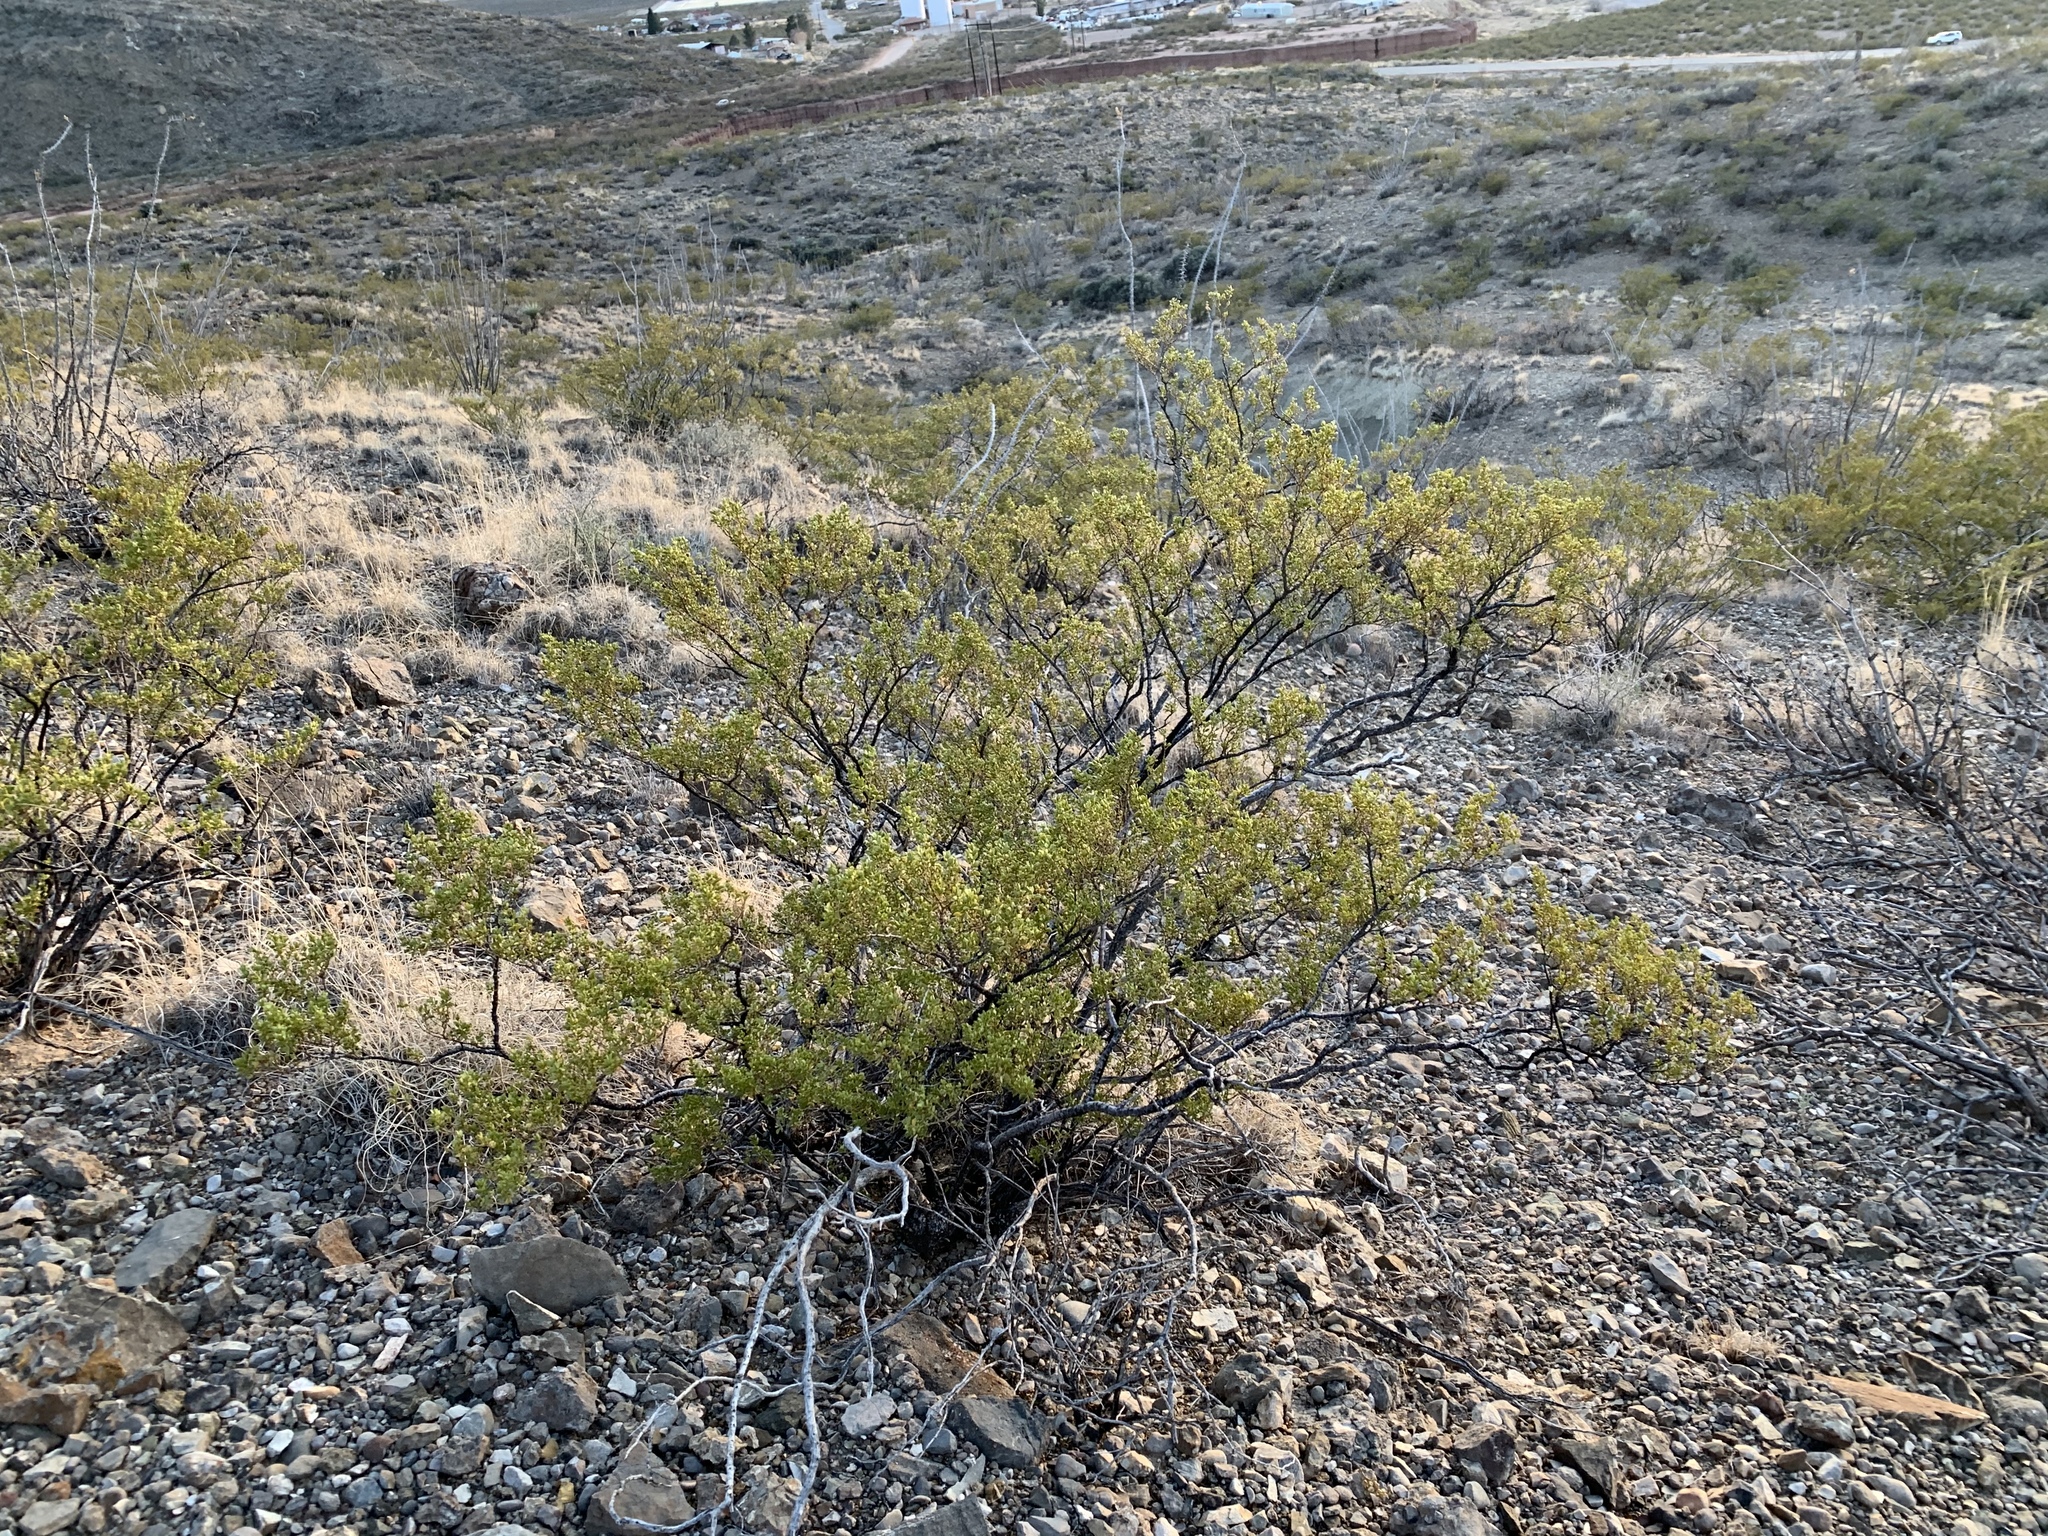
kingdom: Plantae
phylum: Tracheophyta
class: Magnoliopsida
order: Zygophyllales
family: Zygophyllaceae
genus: Larrea
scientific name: Larrea tridentata
